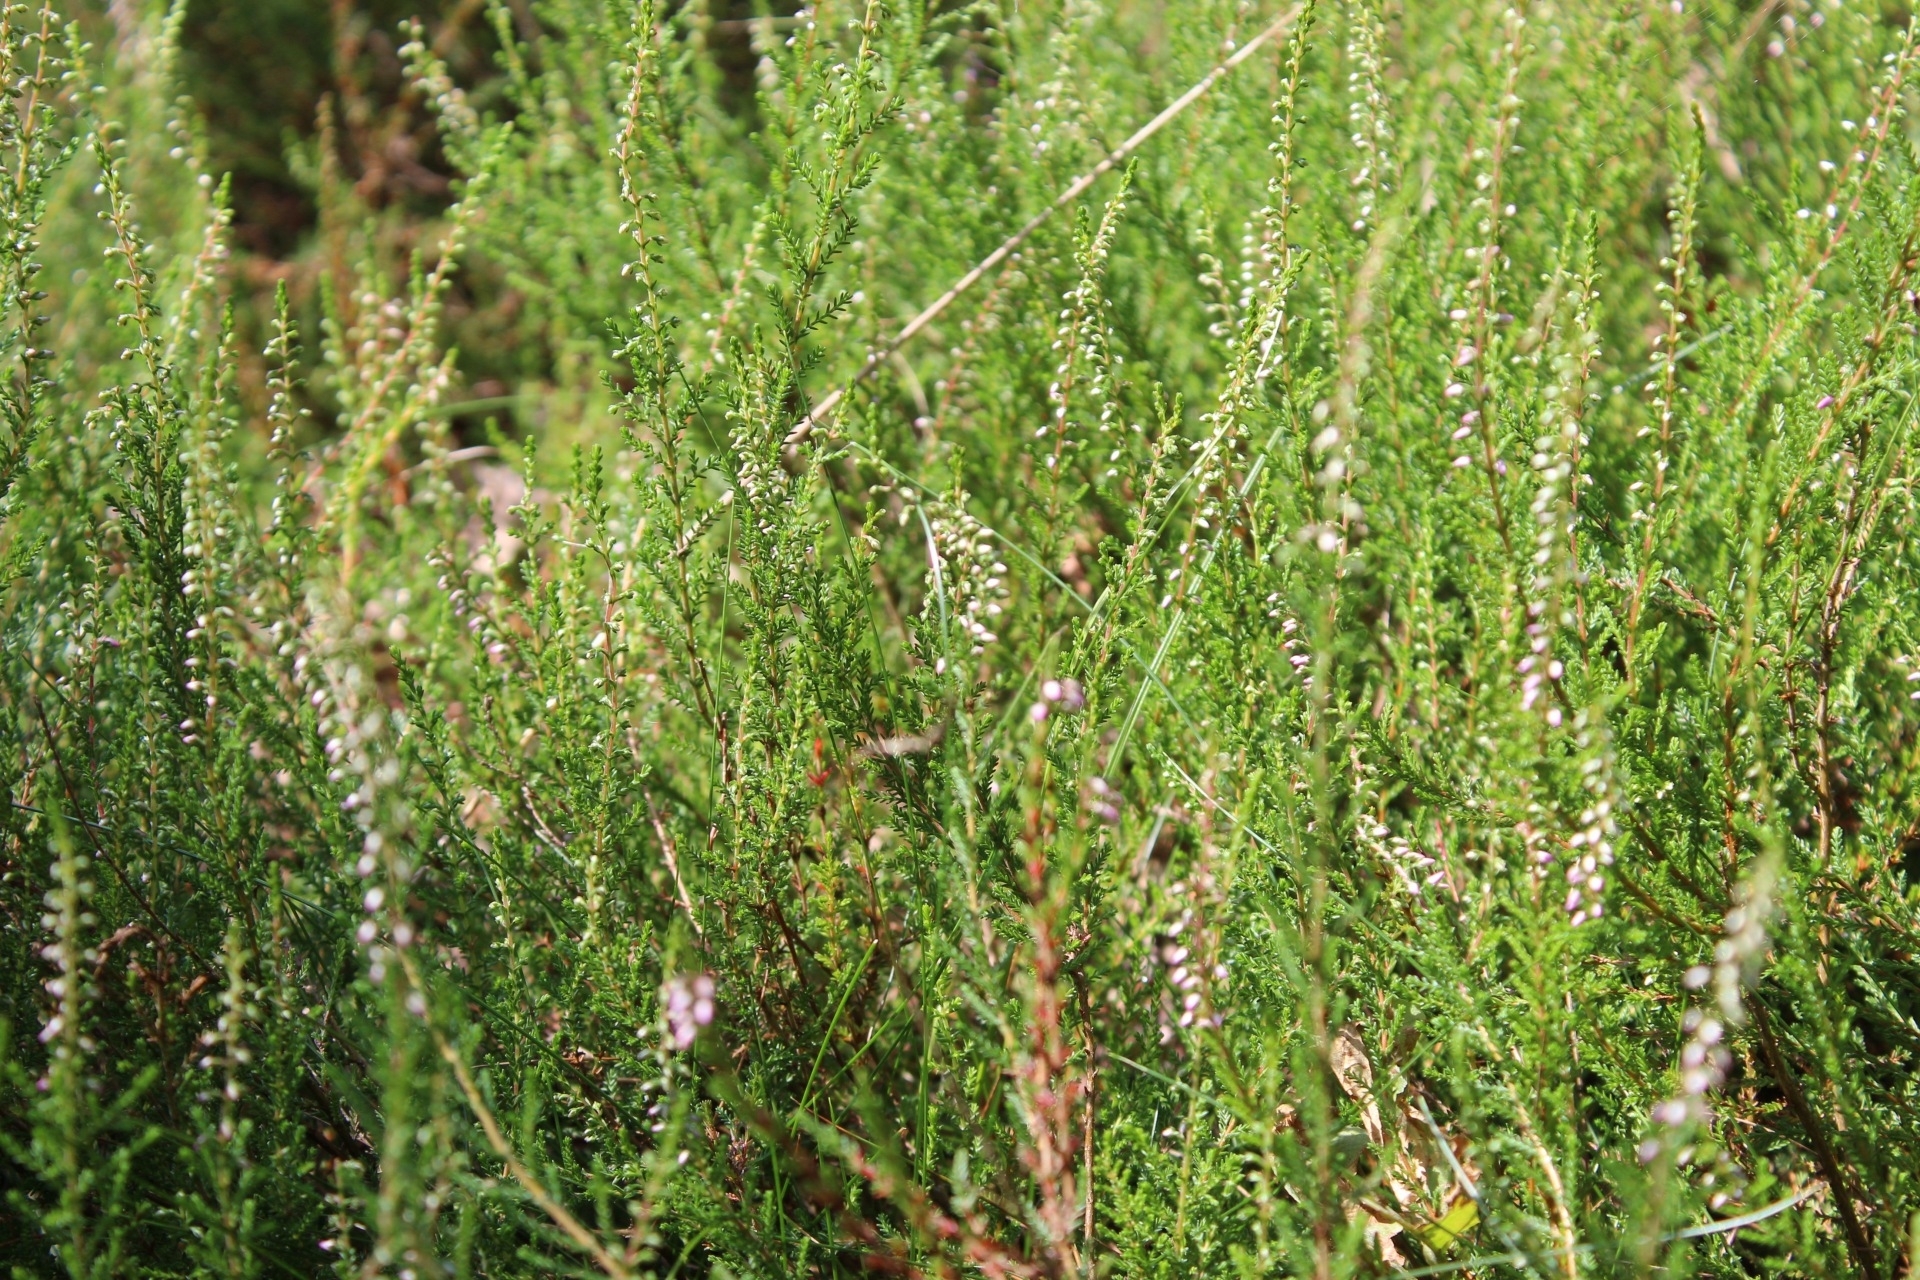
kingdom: Plantae
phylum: Tracheophyta
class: Magnoliopsida
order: Ericales
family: Ericaceae
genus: Calluna
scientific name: Calluna vulgaris
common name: Heather
